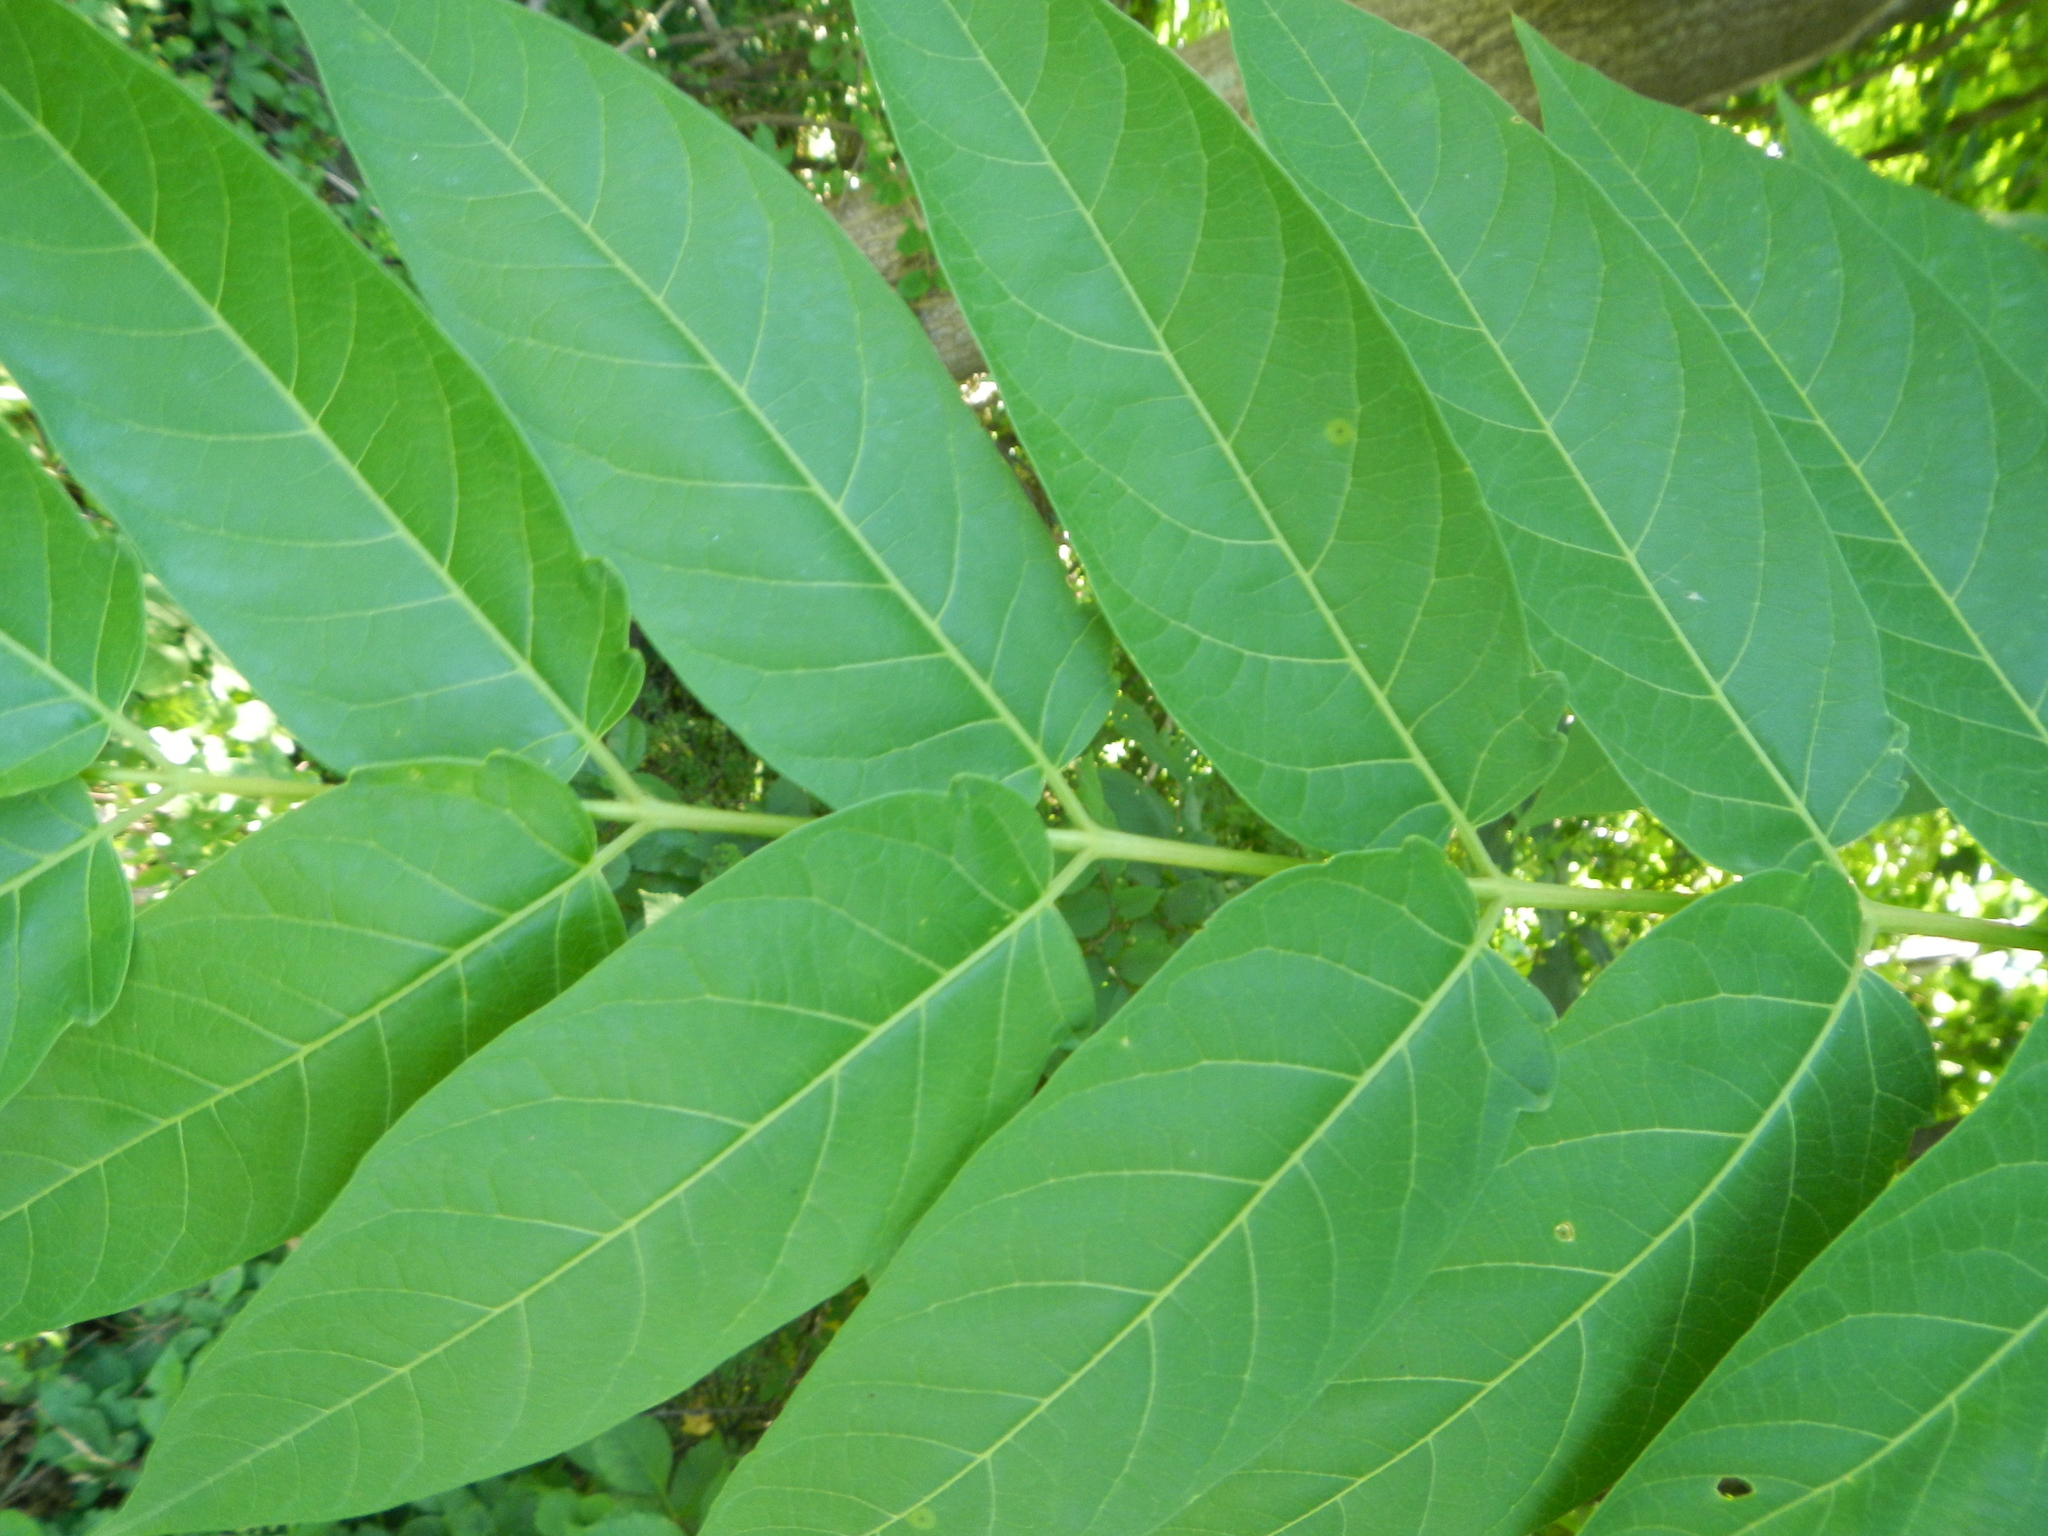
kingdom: Plantae
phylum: Tracheophyta
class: Magnoliopsida
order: Sapindales
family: Simaroubaceae
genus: Ailanthus
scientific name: Ailanthus altissima
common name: Tree-of-heaven
